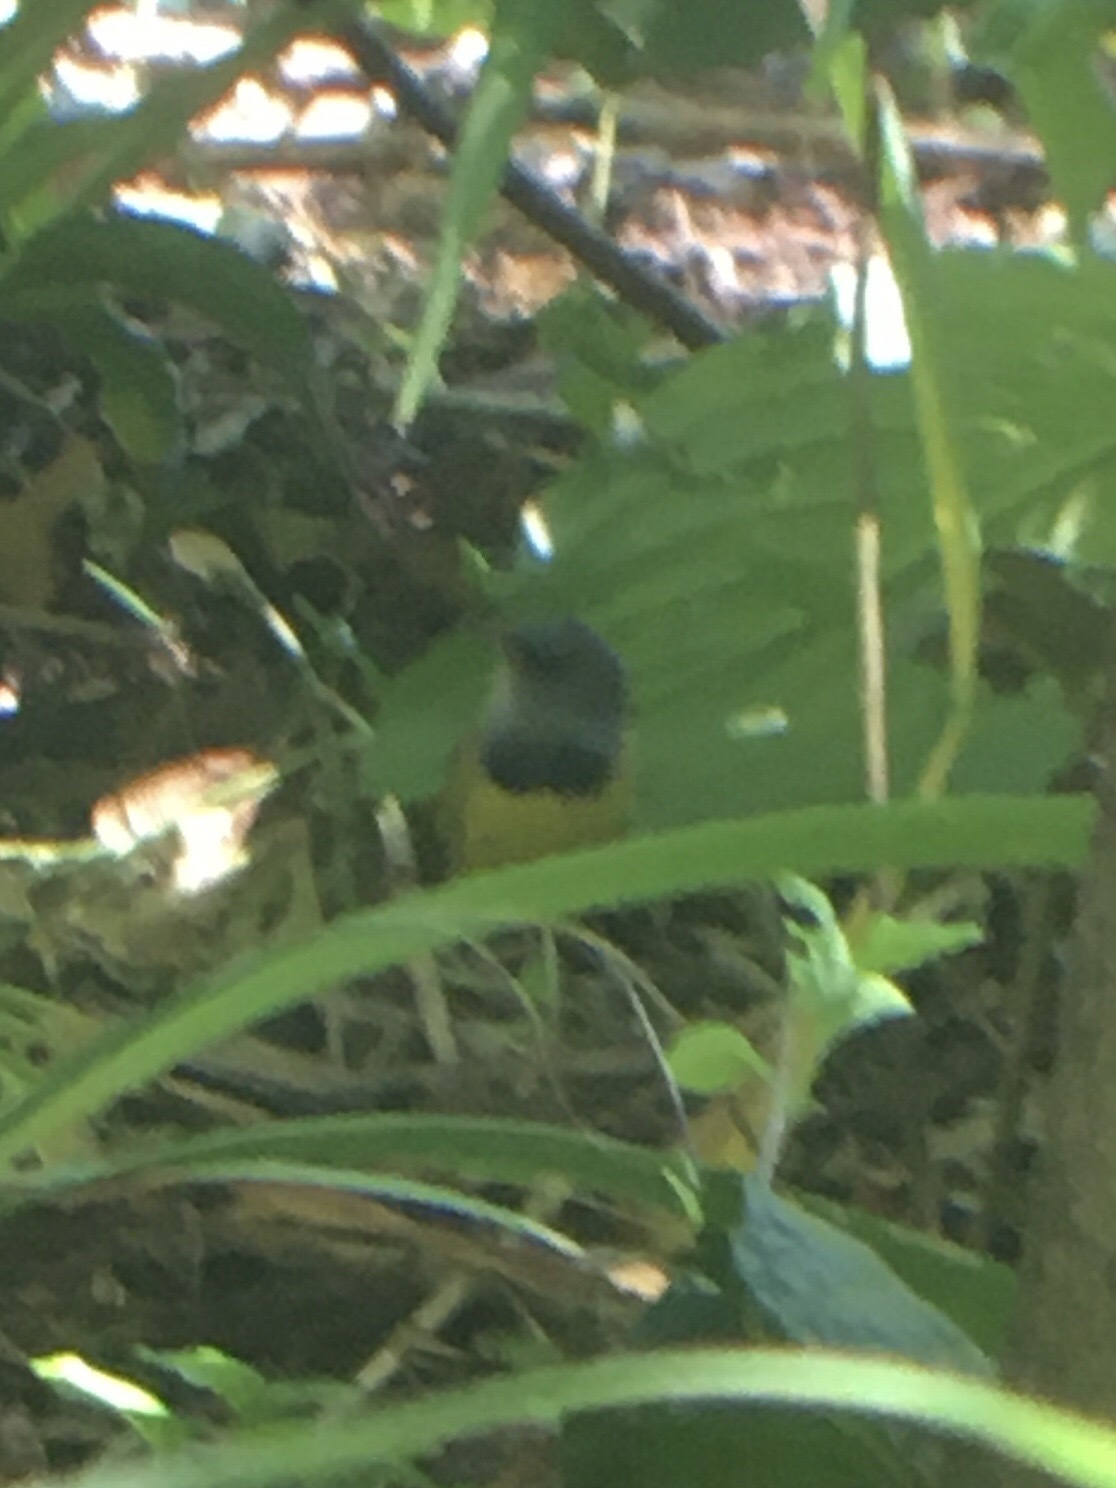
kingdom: Animalia
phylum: Chordata
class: Aves
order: Passeriformes
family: Parulidae
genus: Geothlypis
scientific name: Geothlypis philadelphia
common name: Mourning warbler
